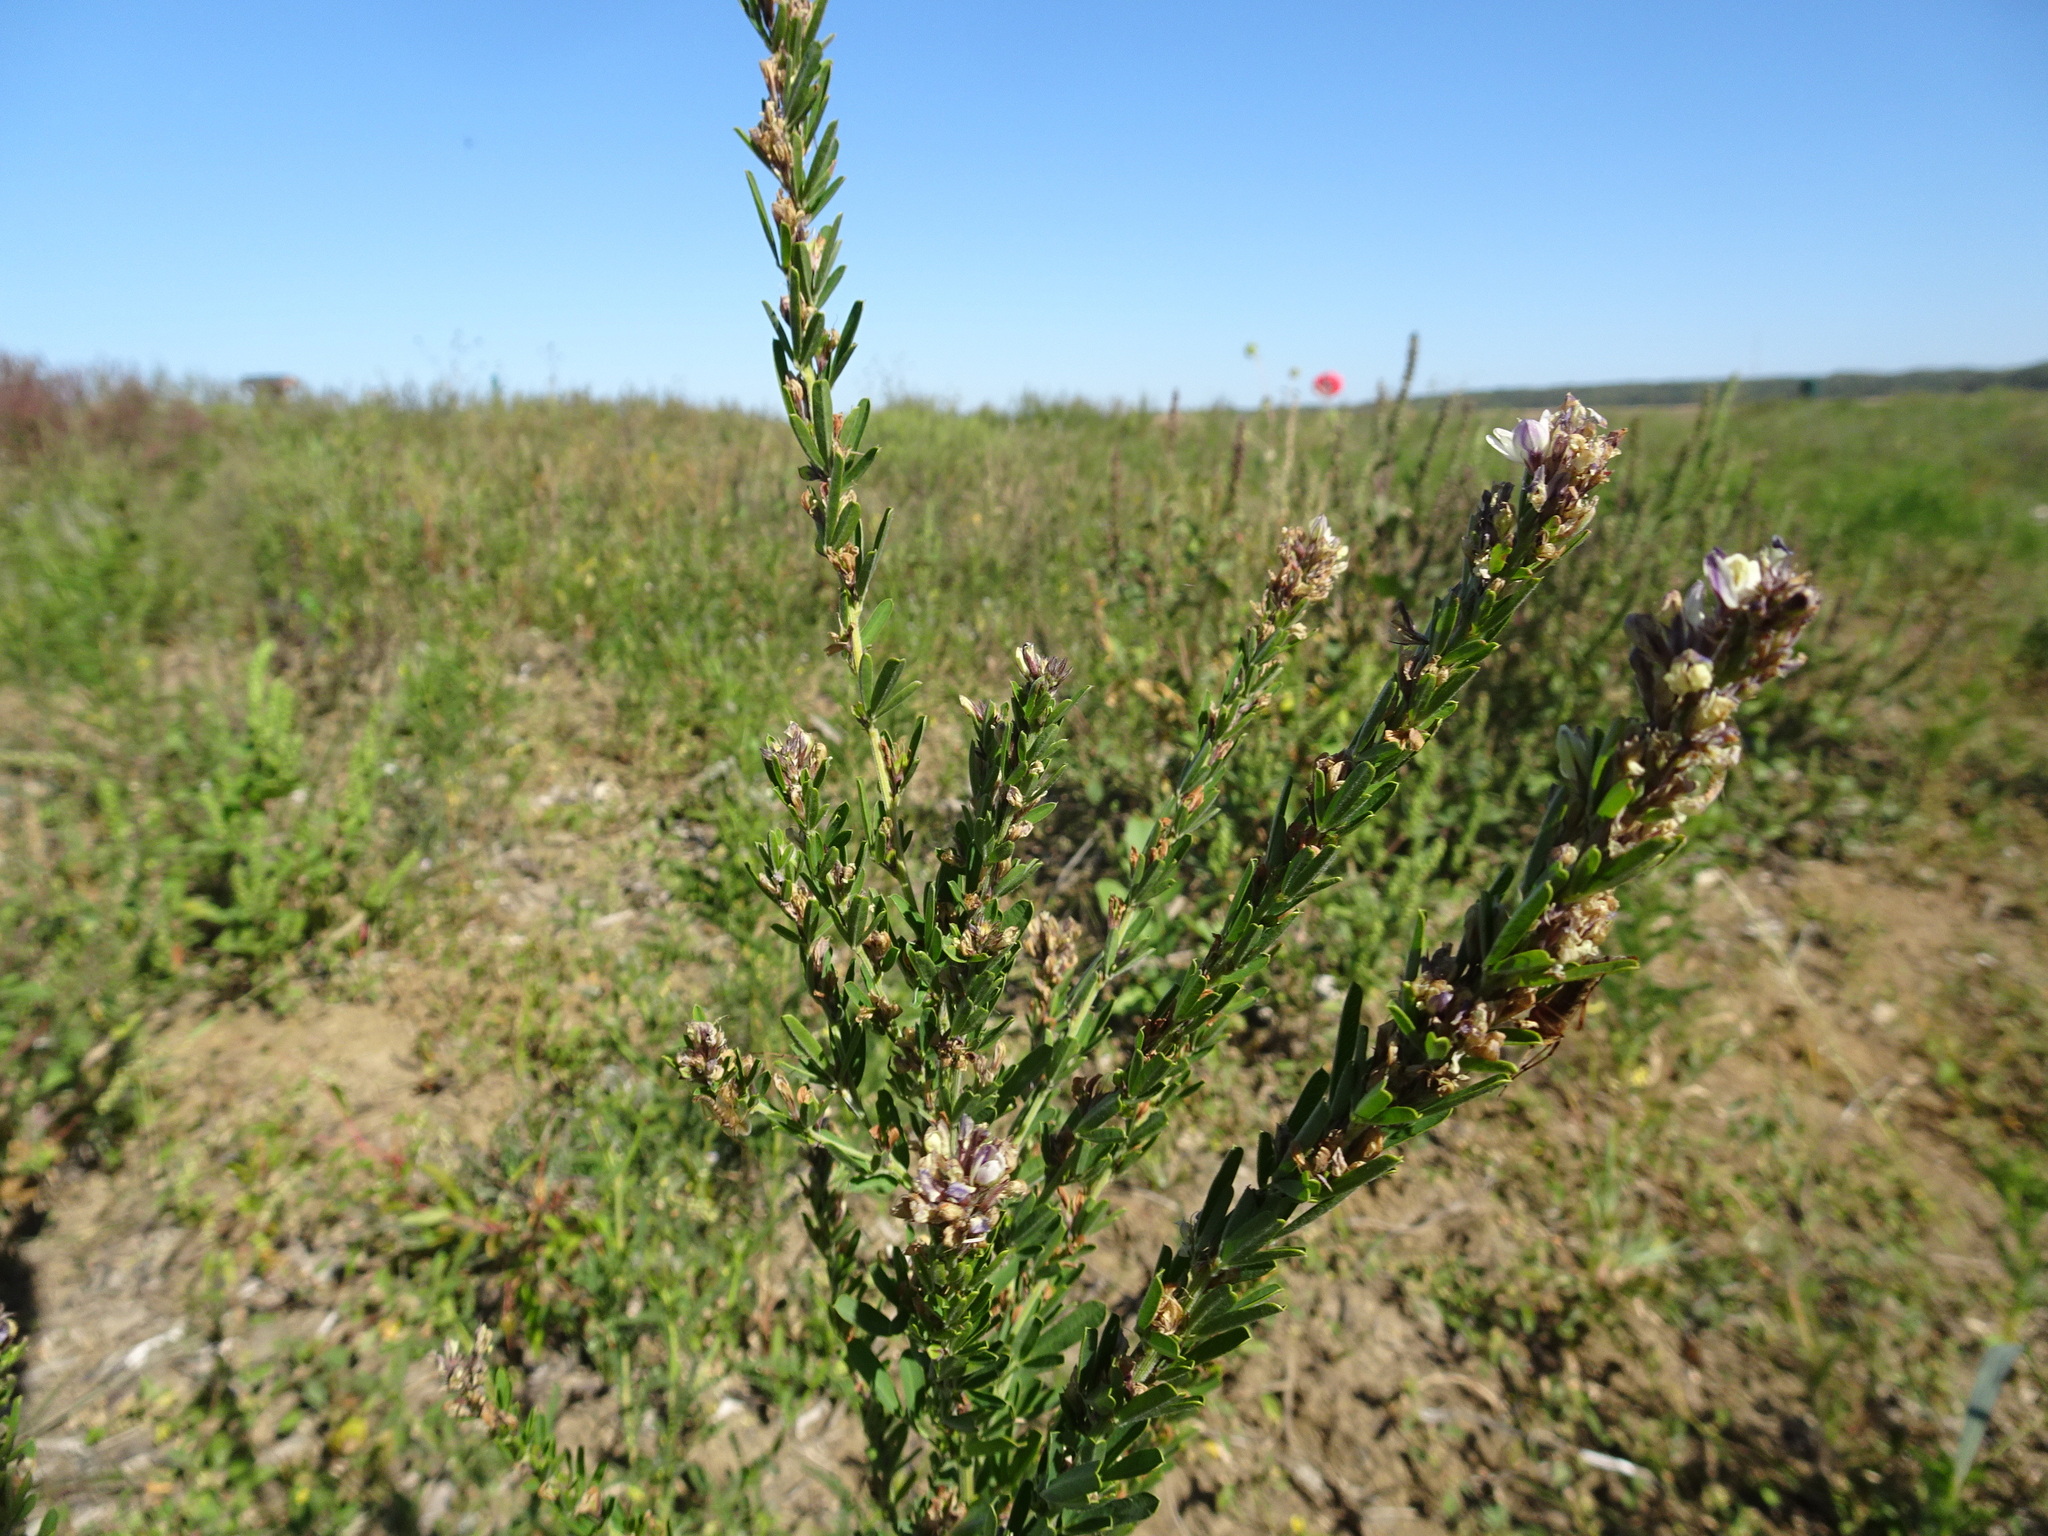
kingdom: Plantae
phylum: Tracheophyta
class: Magnoliopsida
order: Fabales
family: Fabaceae
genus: Lespedeza
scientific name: Lespedeza cuneata
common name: Chinese bush-clover
